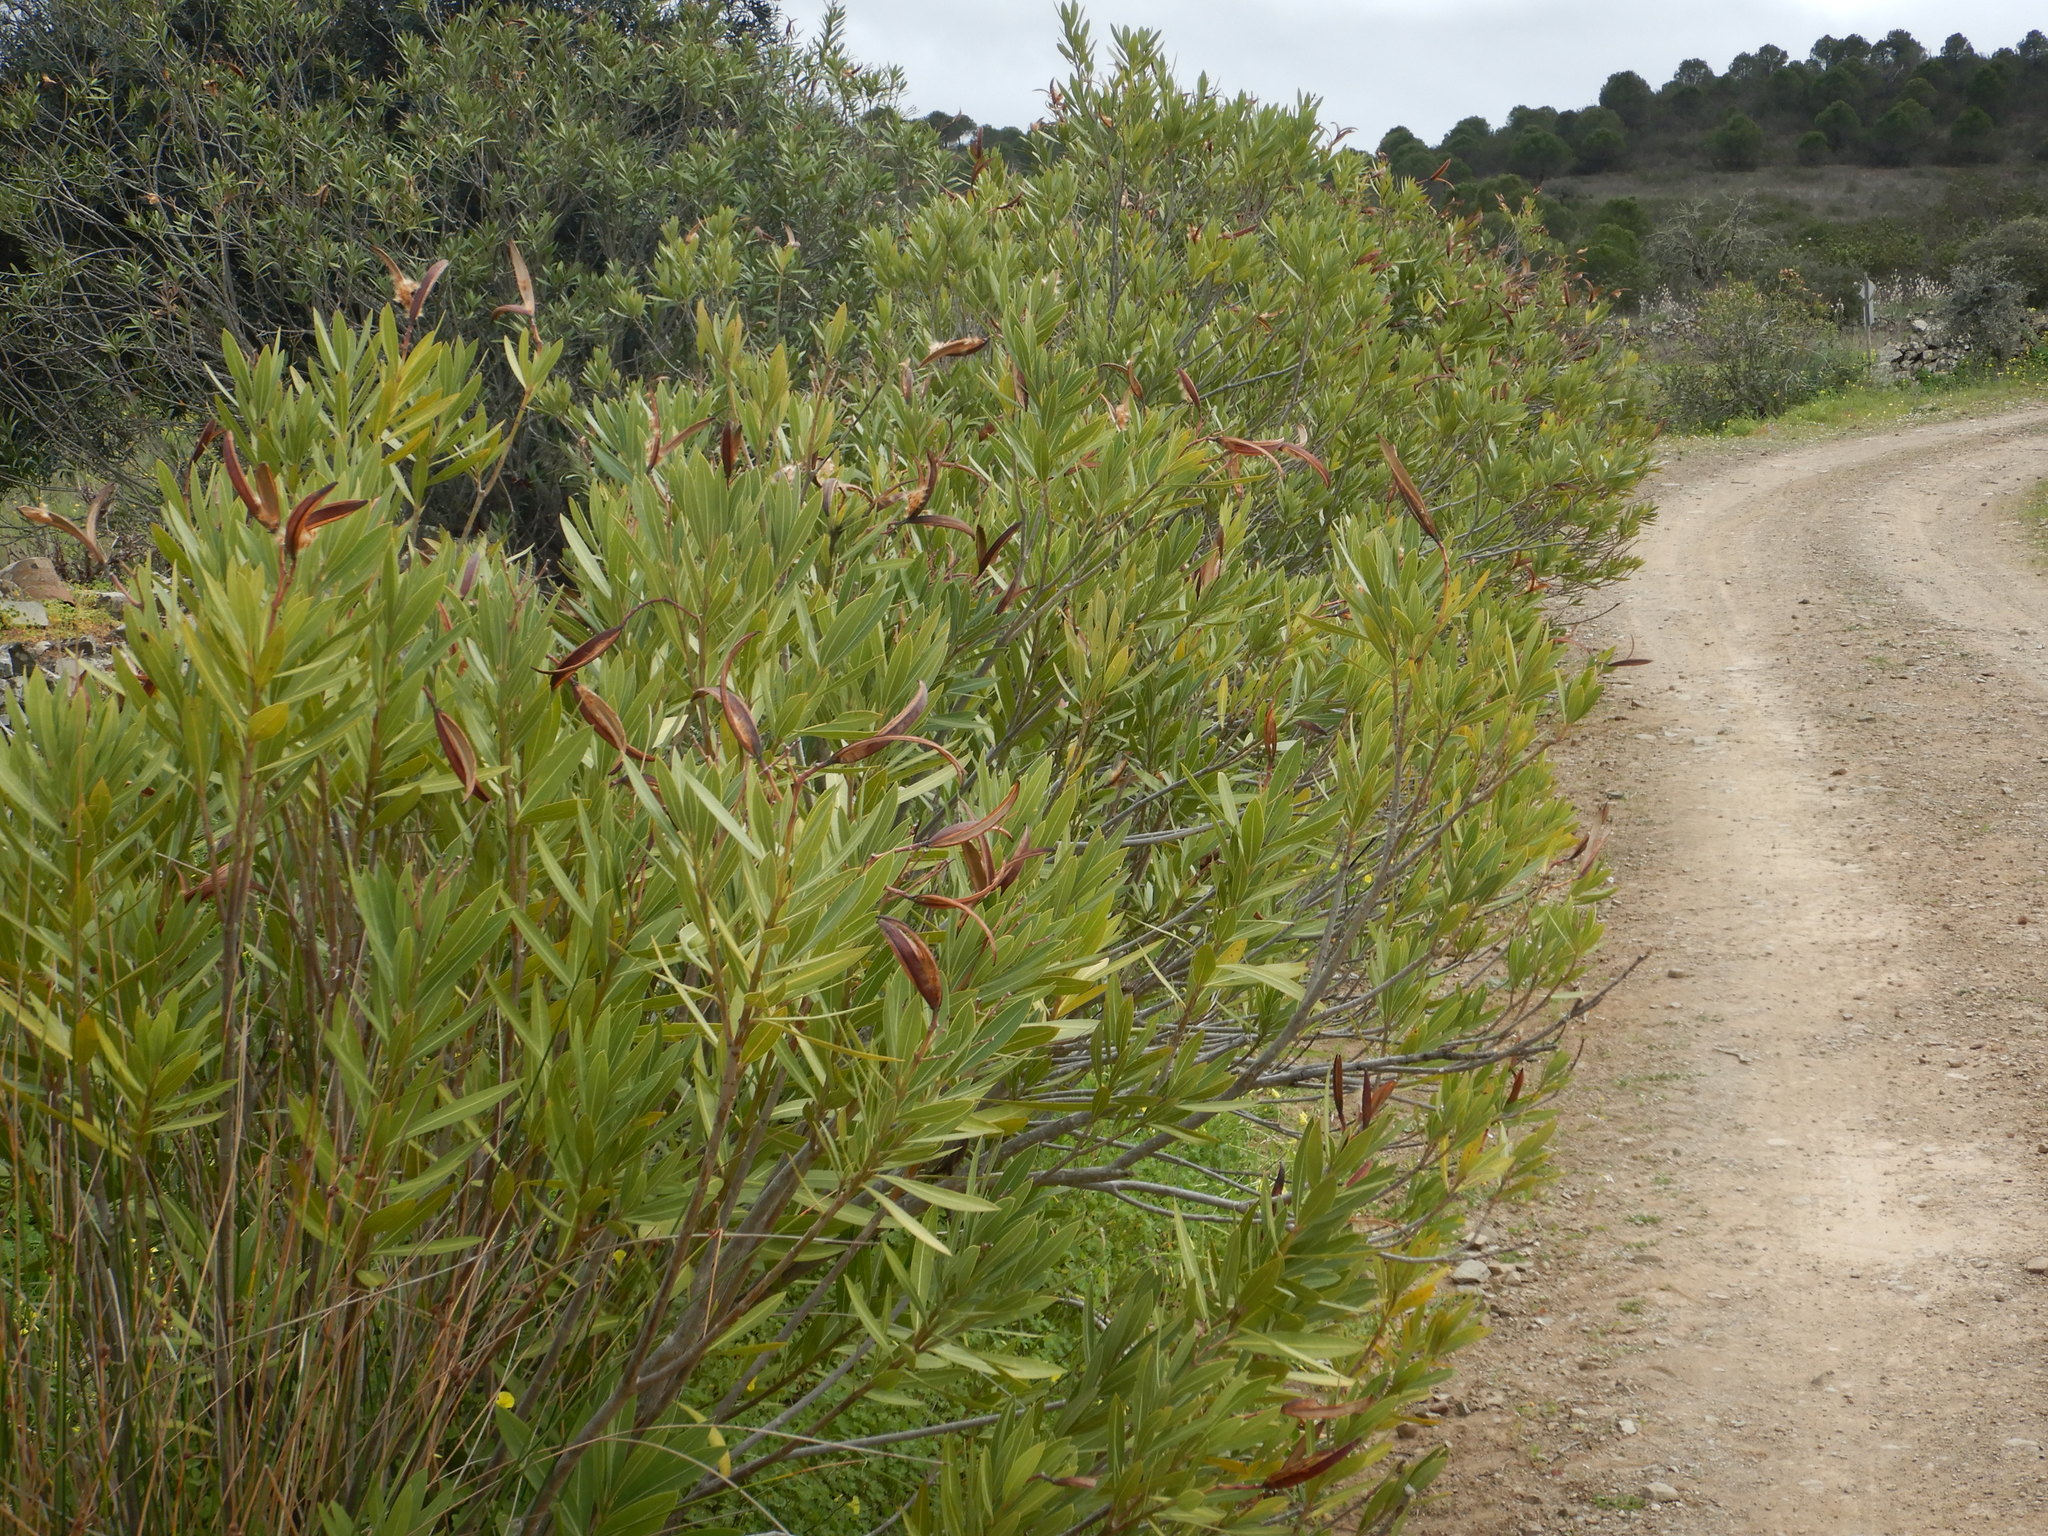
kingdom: Plantae
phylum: Tracheophyta
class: Magnoliopsida
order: Gentianales
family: Apocynaceae
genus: Nerium
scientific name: Nerium oleander
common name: Oleander
